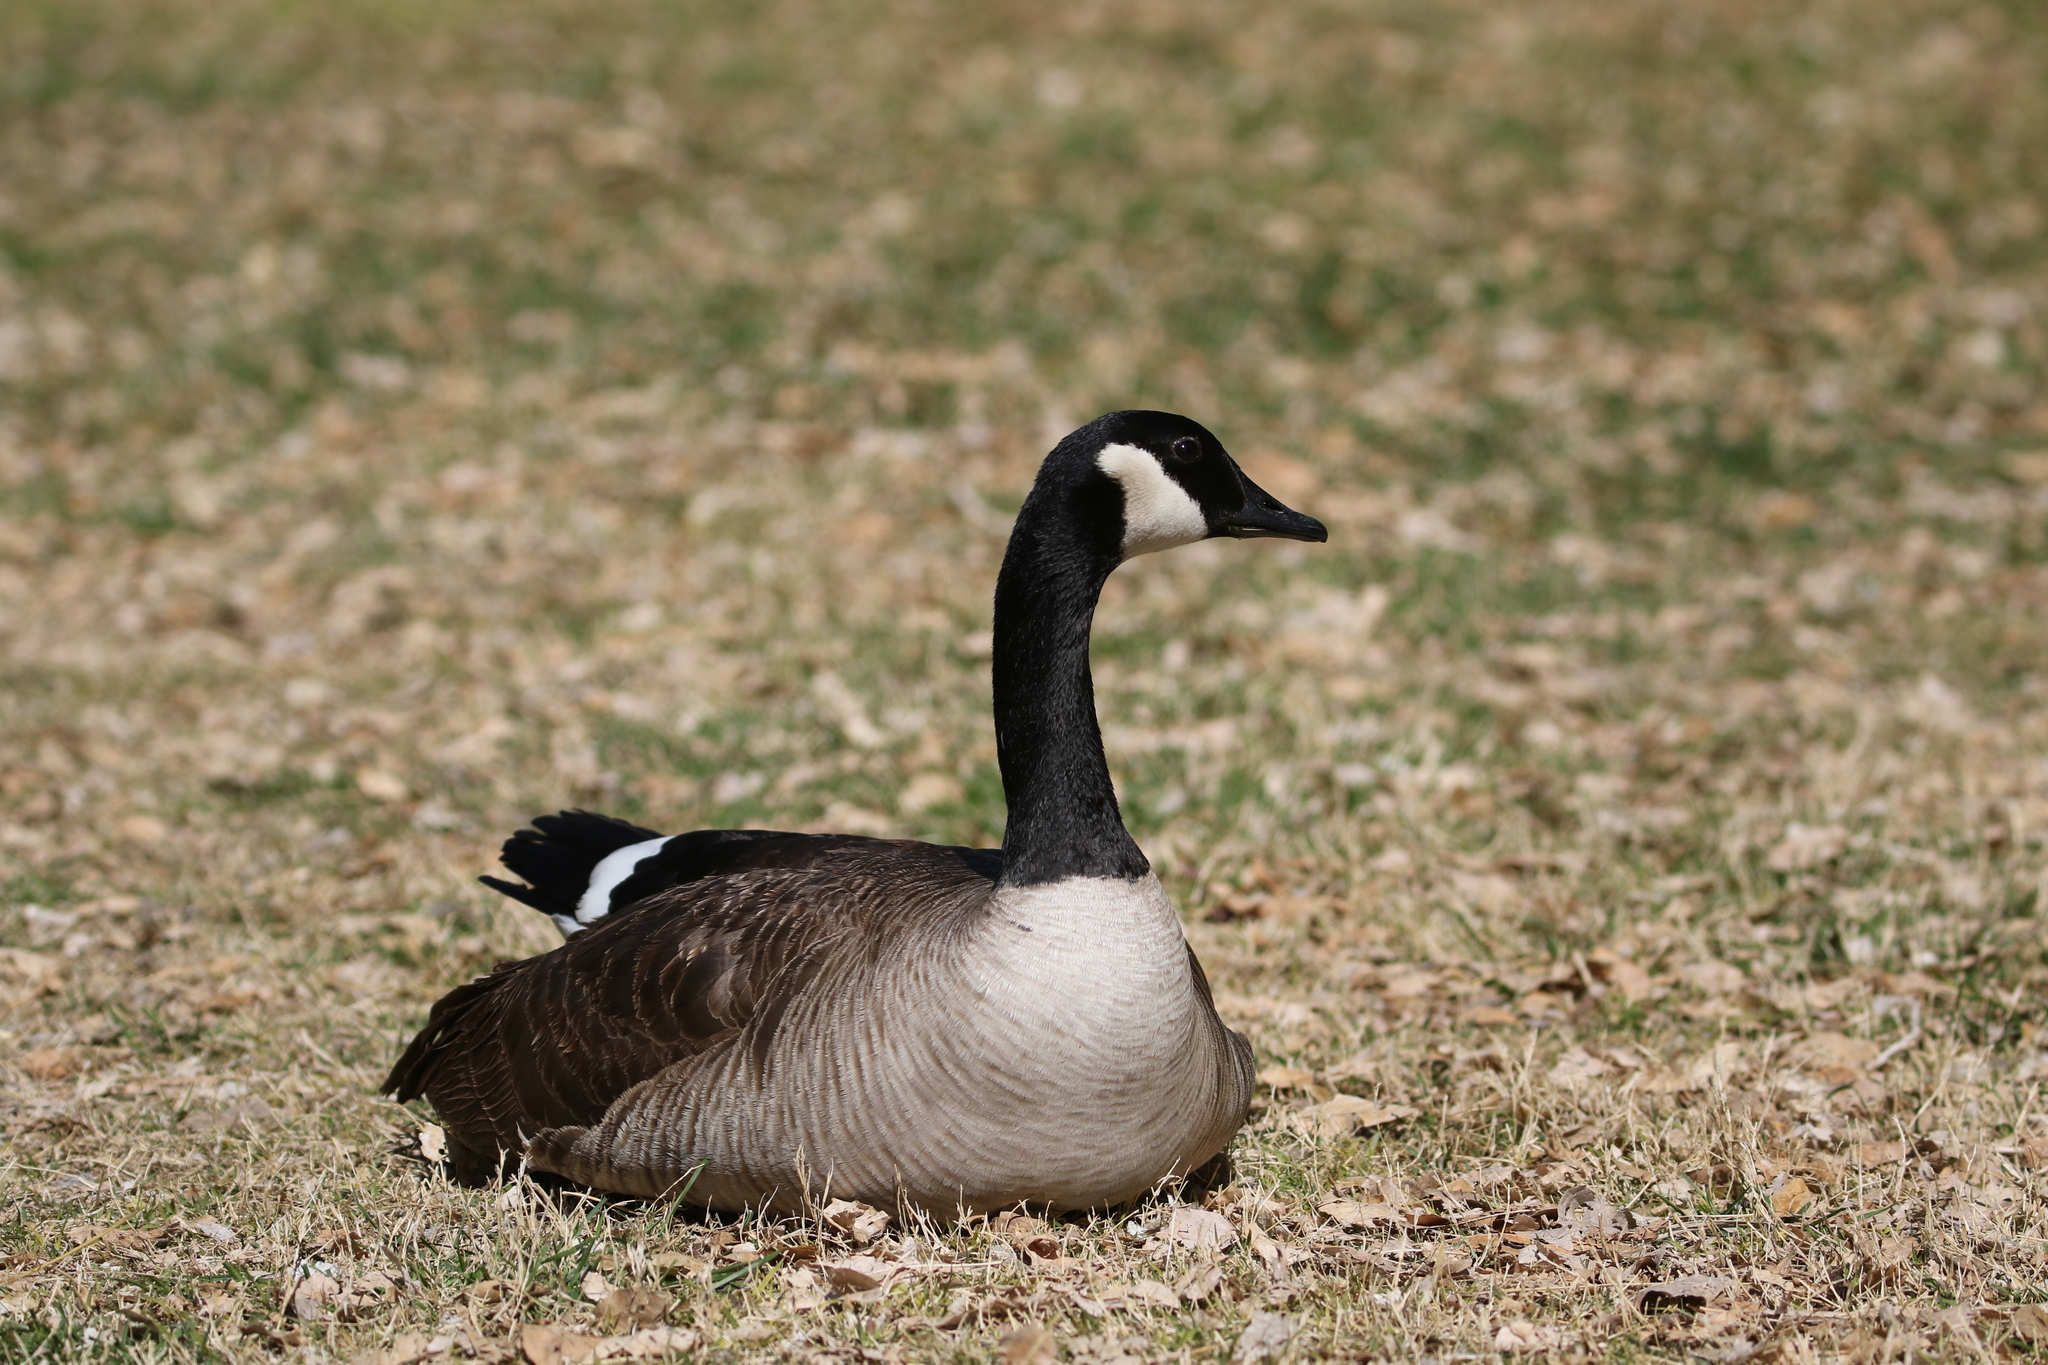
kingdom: Animalia
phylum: Chordata
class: Aves
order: Anseriformes
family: Anatidae
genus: Branta
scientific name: Branta canadensis
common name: Canada goose
